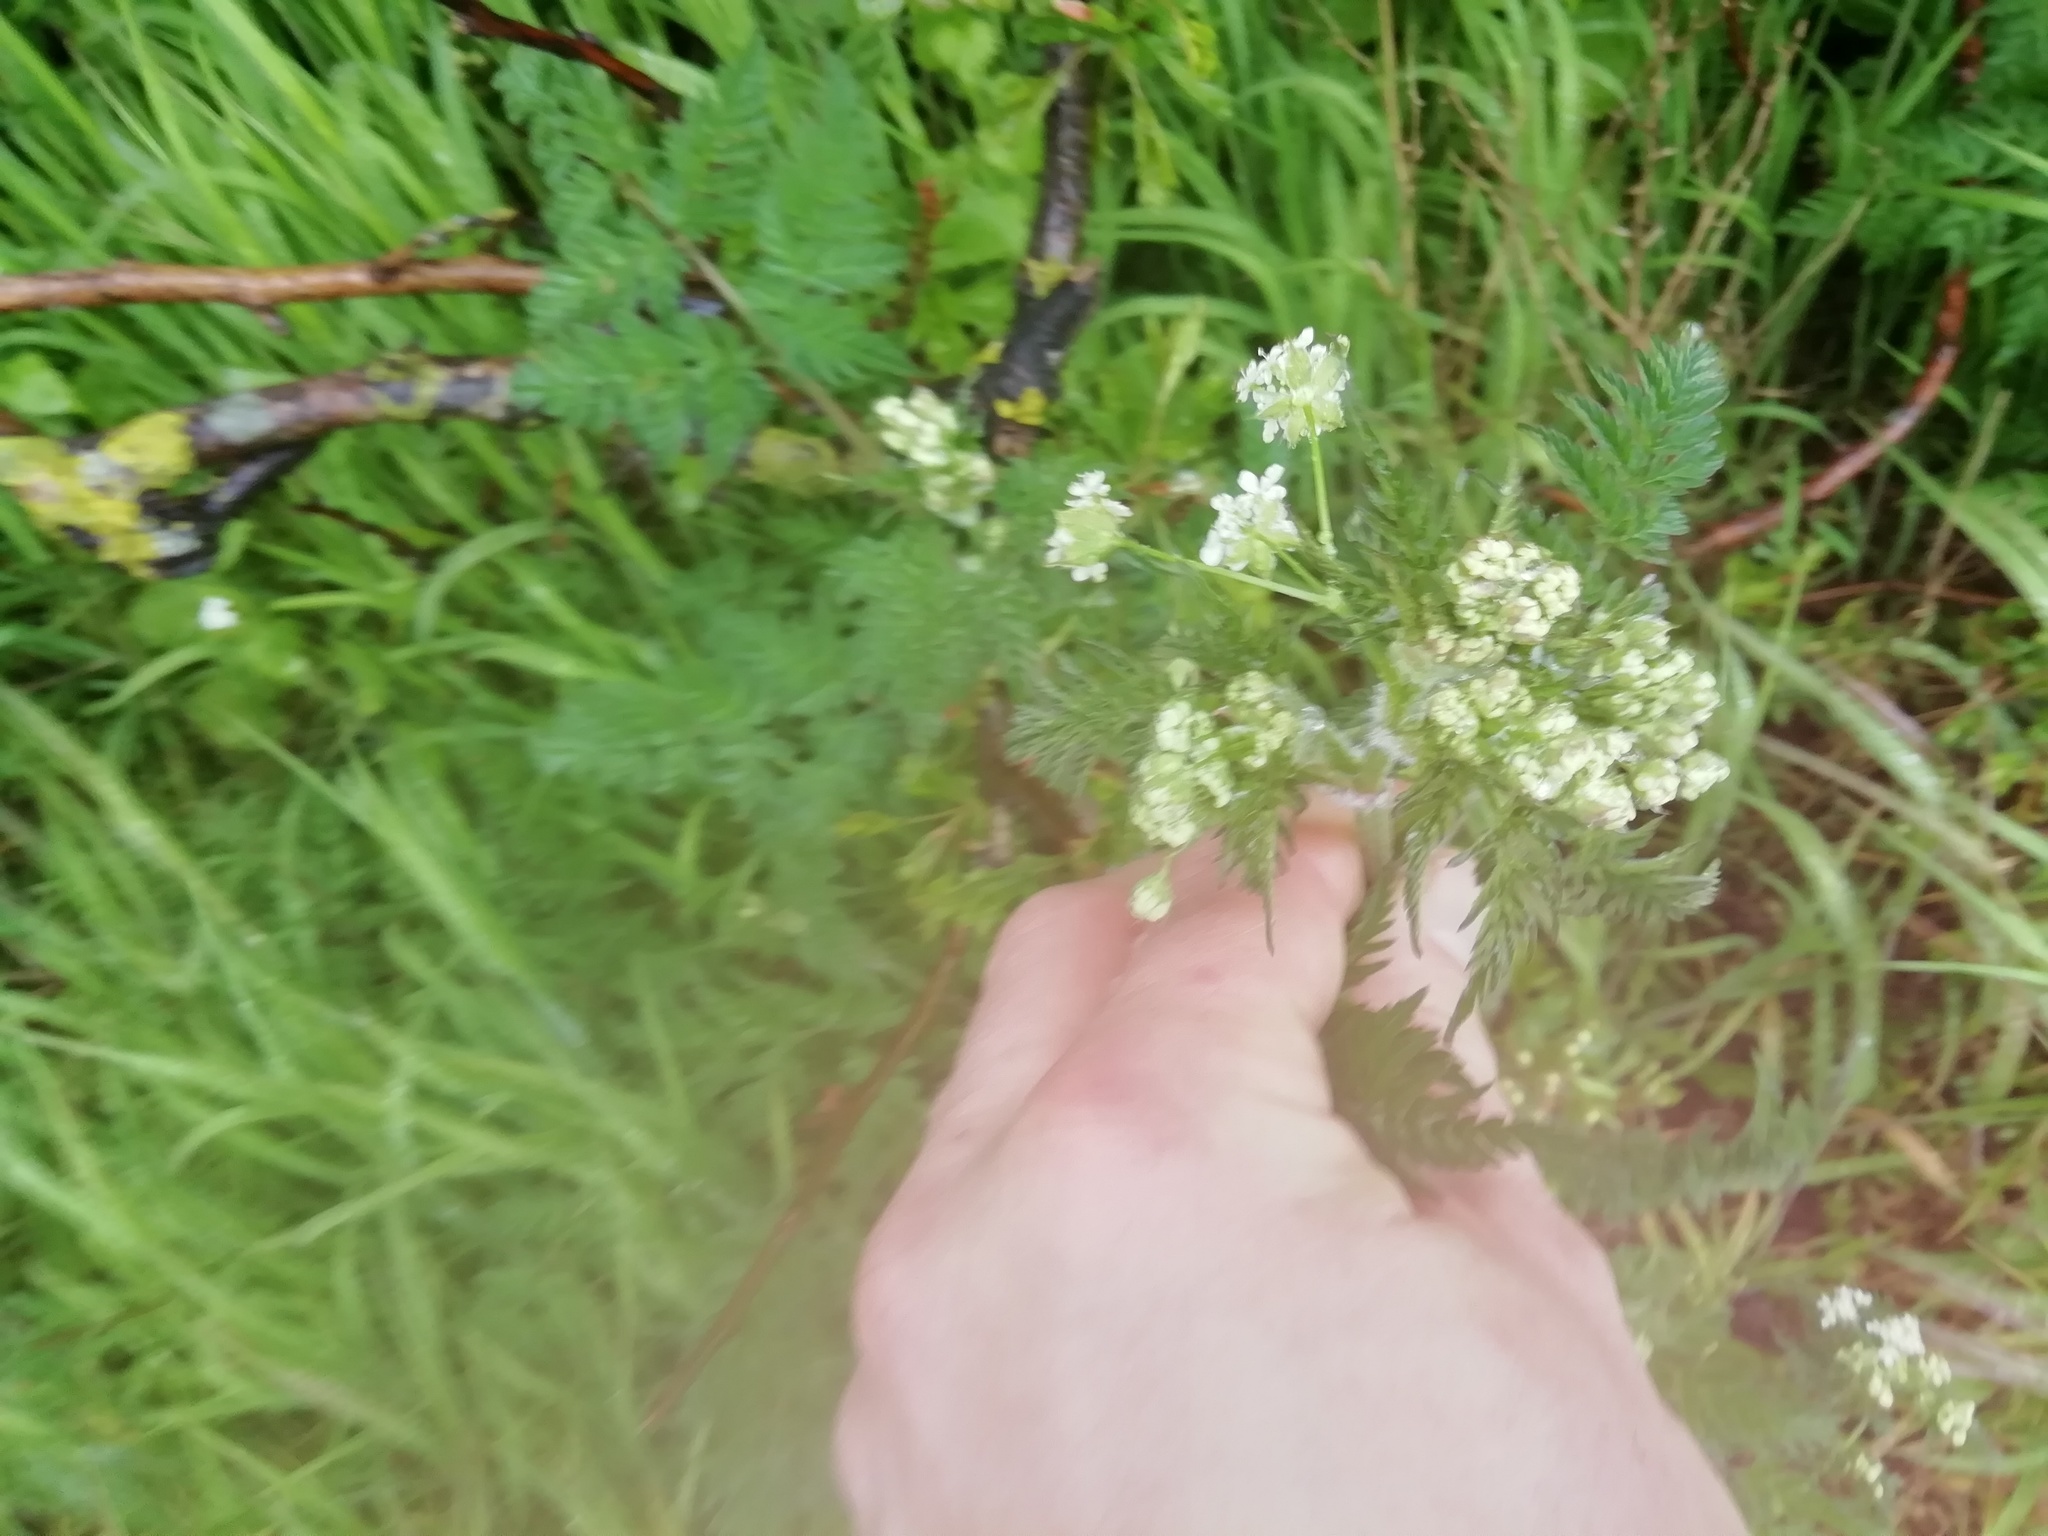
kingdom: Plantae
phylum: Tracheophyta
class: Magnoliopsida
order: Apiales
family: Apiaceae
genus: Anthriscus
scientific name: Anthriscus sylvestris
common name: Cow parsley
